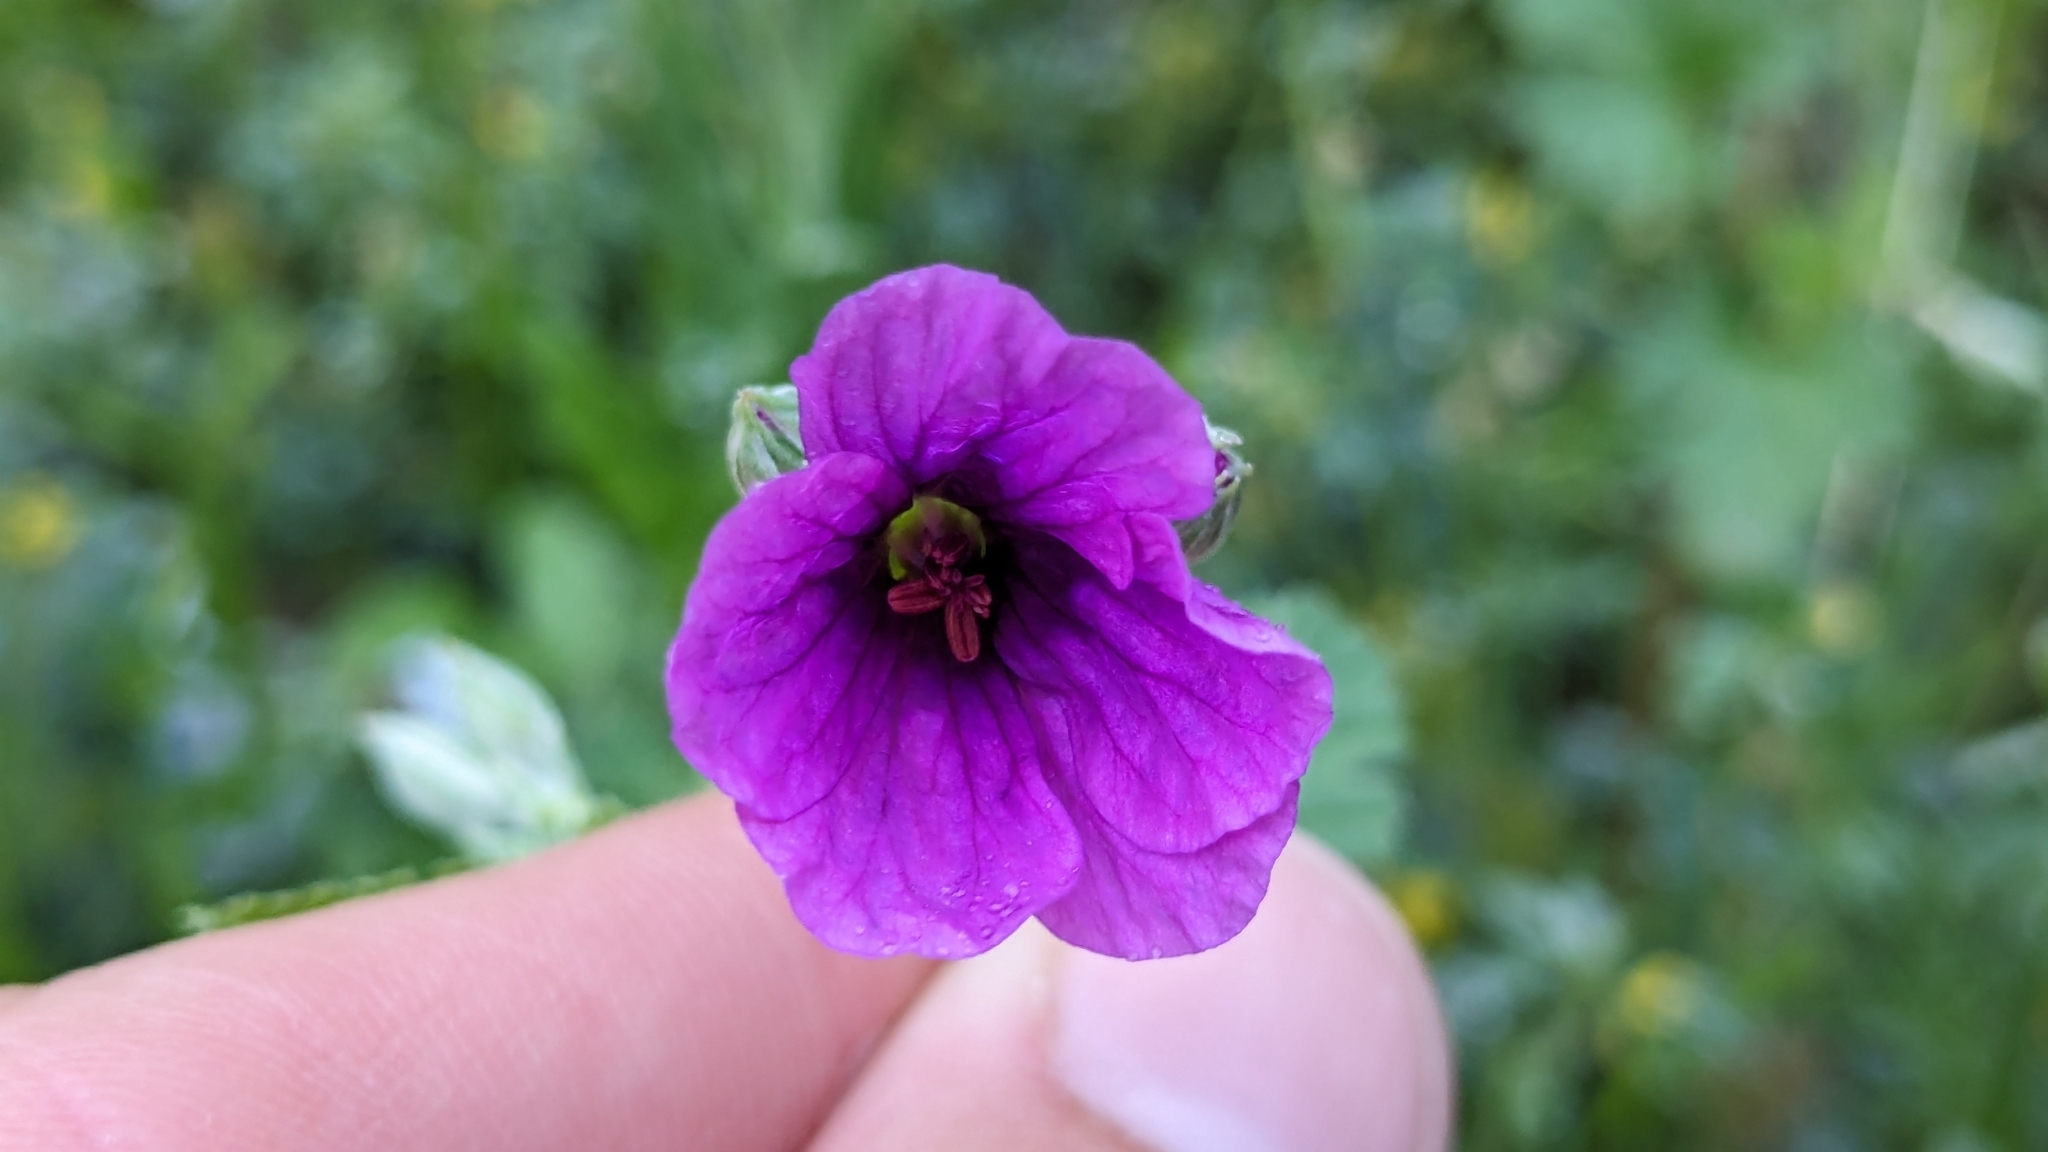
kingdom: Plantae
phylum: Tracheophyta
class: Magnoliopsida
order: Geraniales
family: Geraniaceae
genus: Erodium
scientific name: Erodium texanum
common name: Texas stork's-bill
